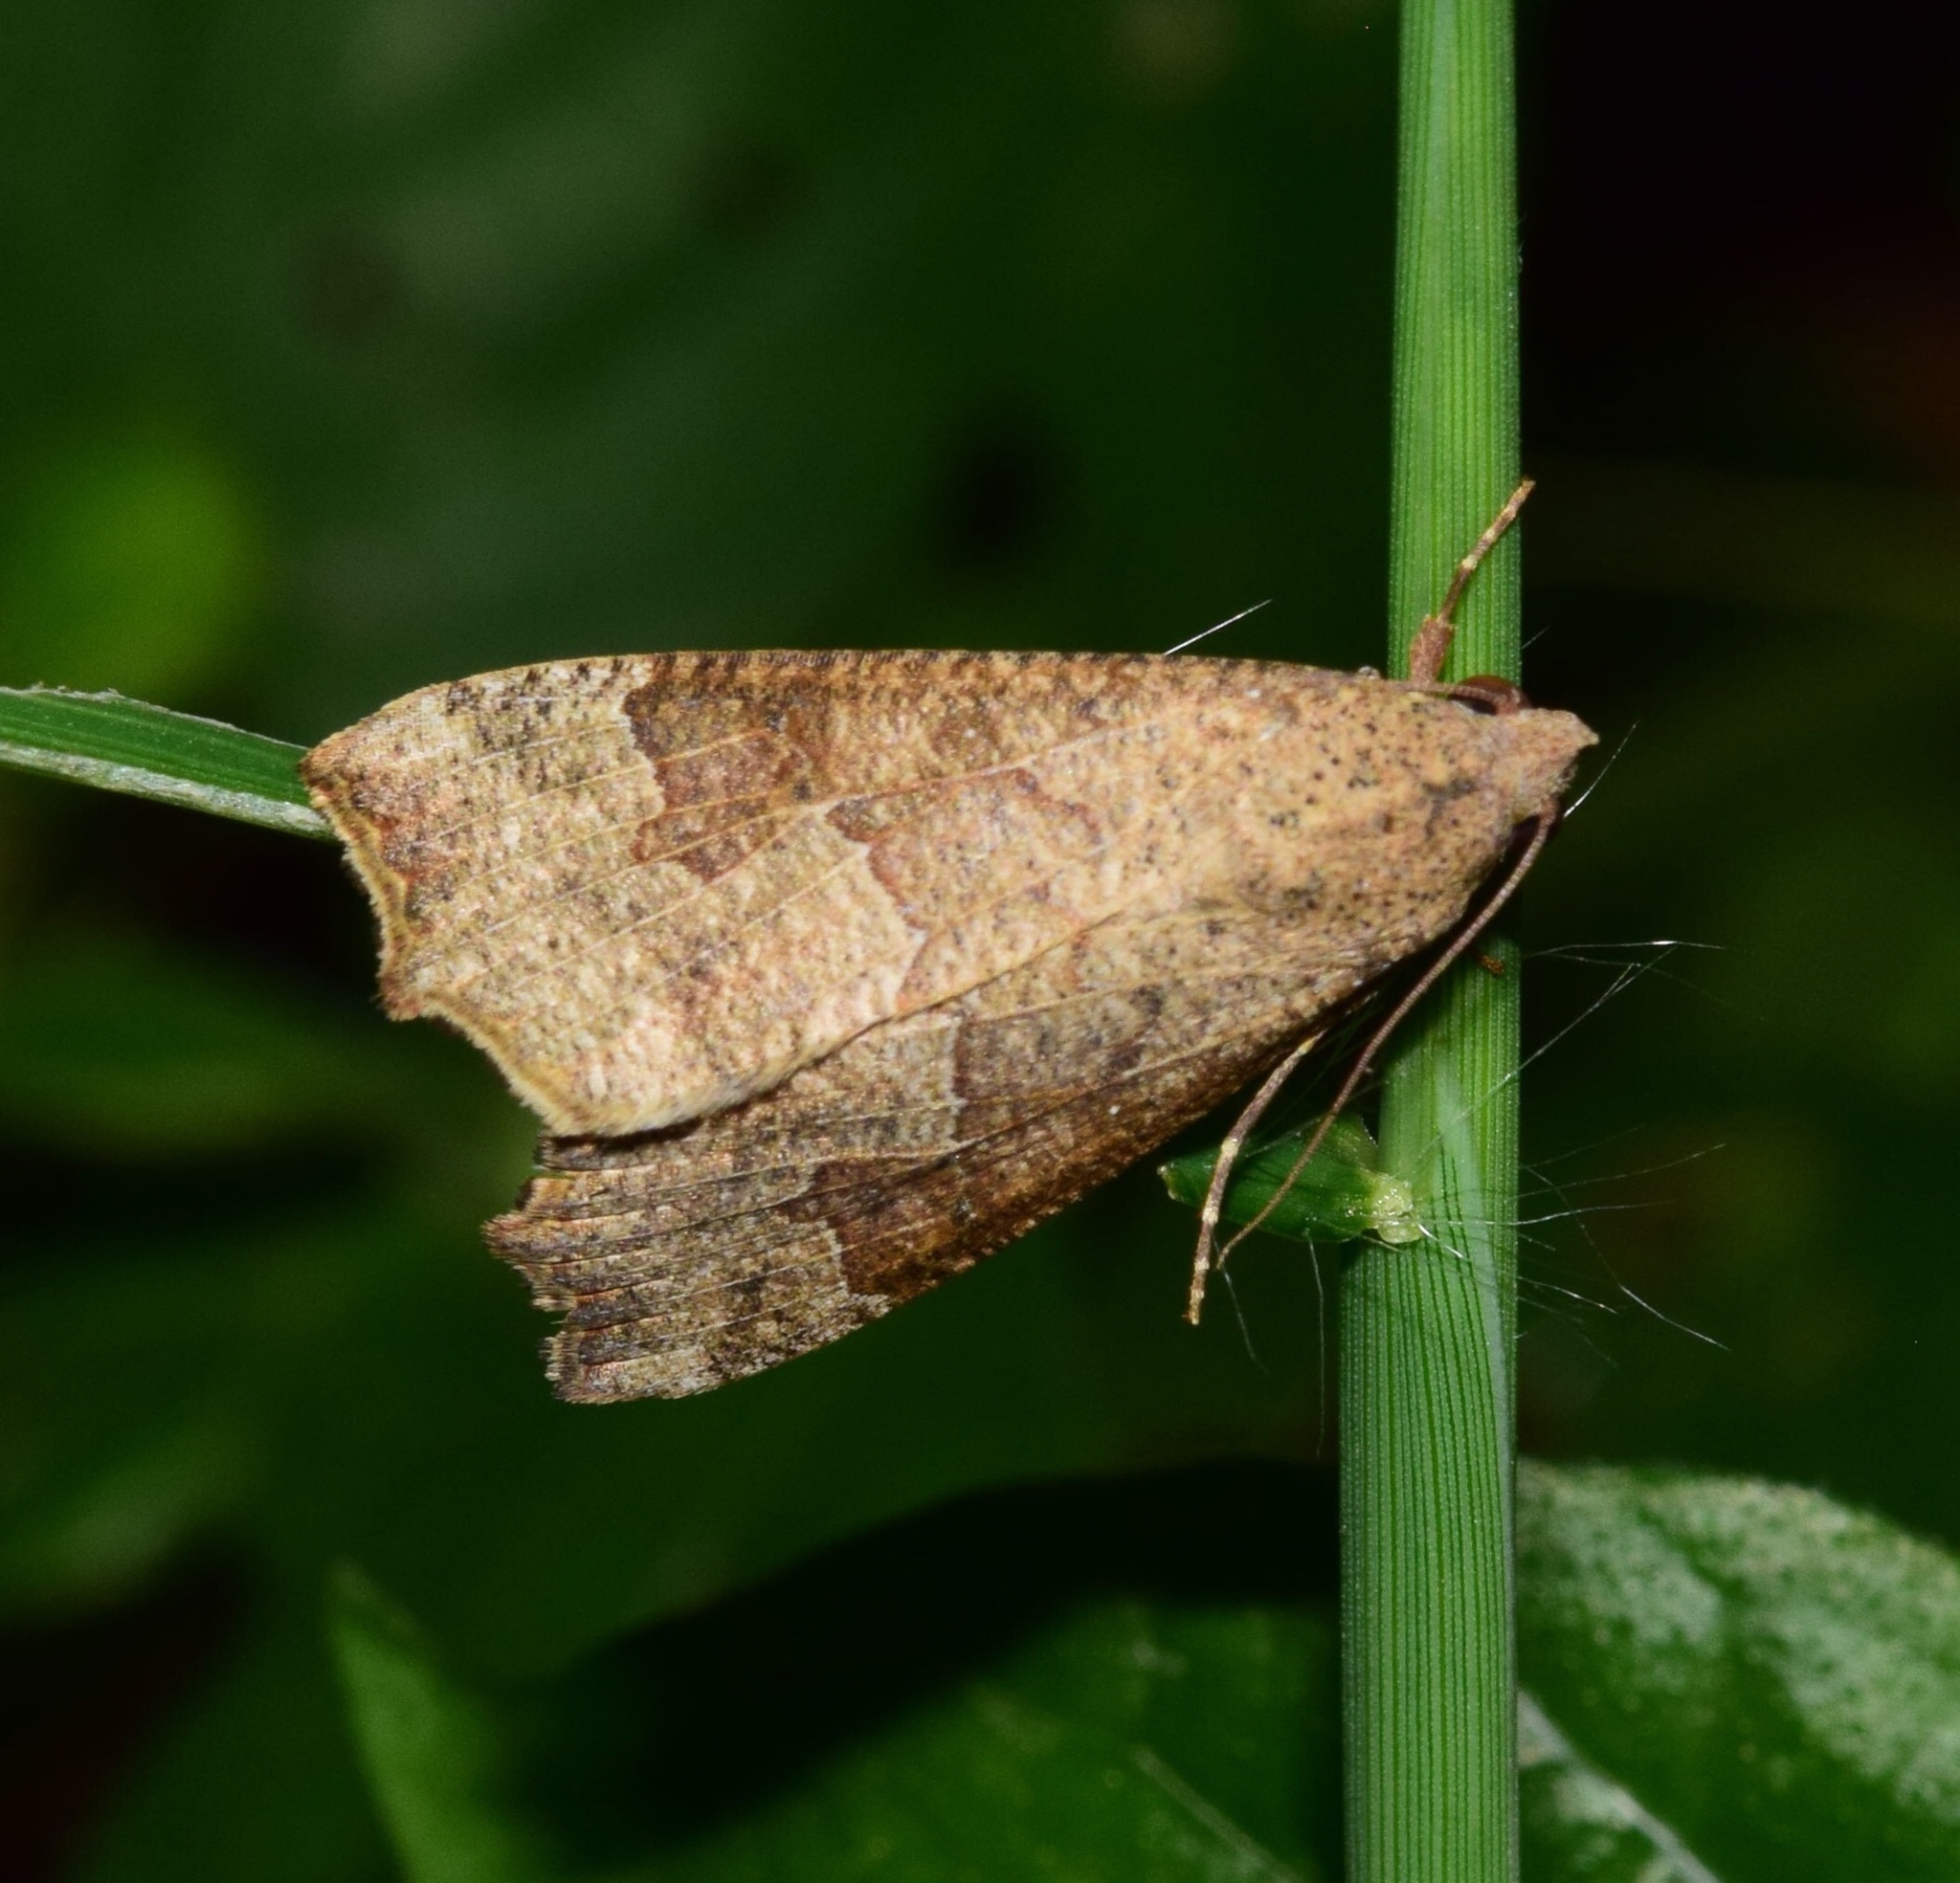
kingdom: Animalia
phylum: Arthropoda
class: Insecta
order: Lepidoptera
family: Erebidae
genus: Anomis
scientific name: Anomis sabulifera
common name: Angled gem
